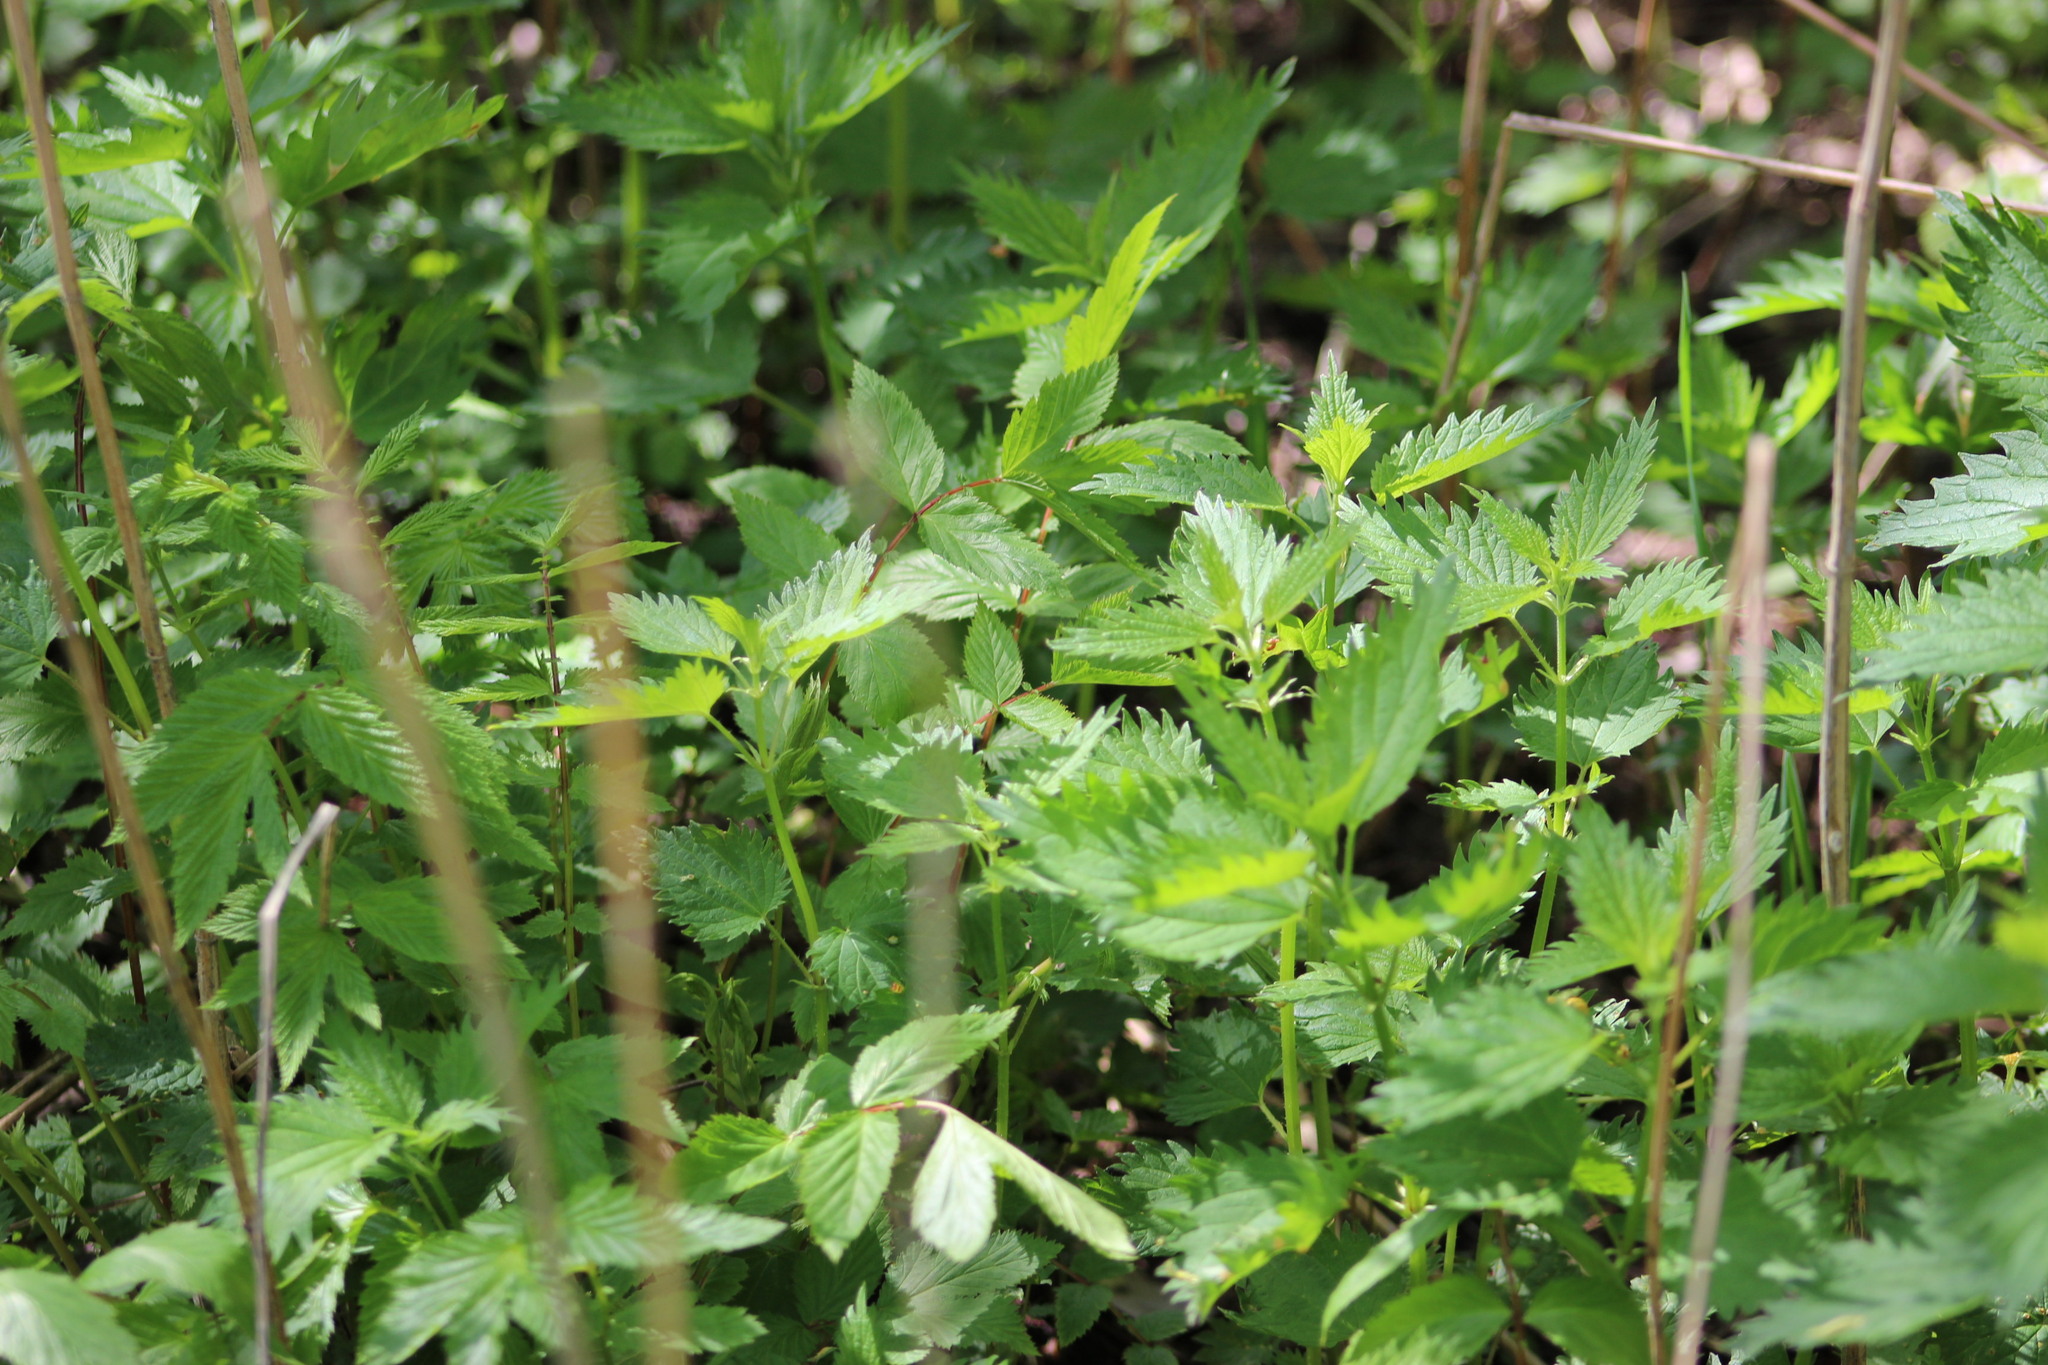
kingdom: Plantae
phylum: Tracheophyta
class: Magnoliopsida
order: Rosales
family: Urticaceae
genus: Urtica
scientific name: Urtica dioica
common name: Common nettle
